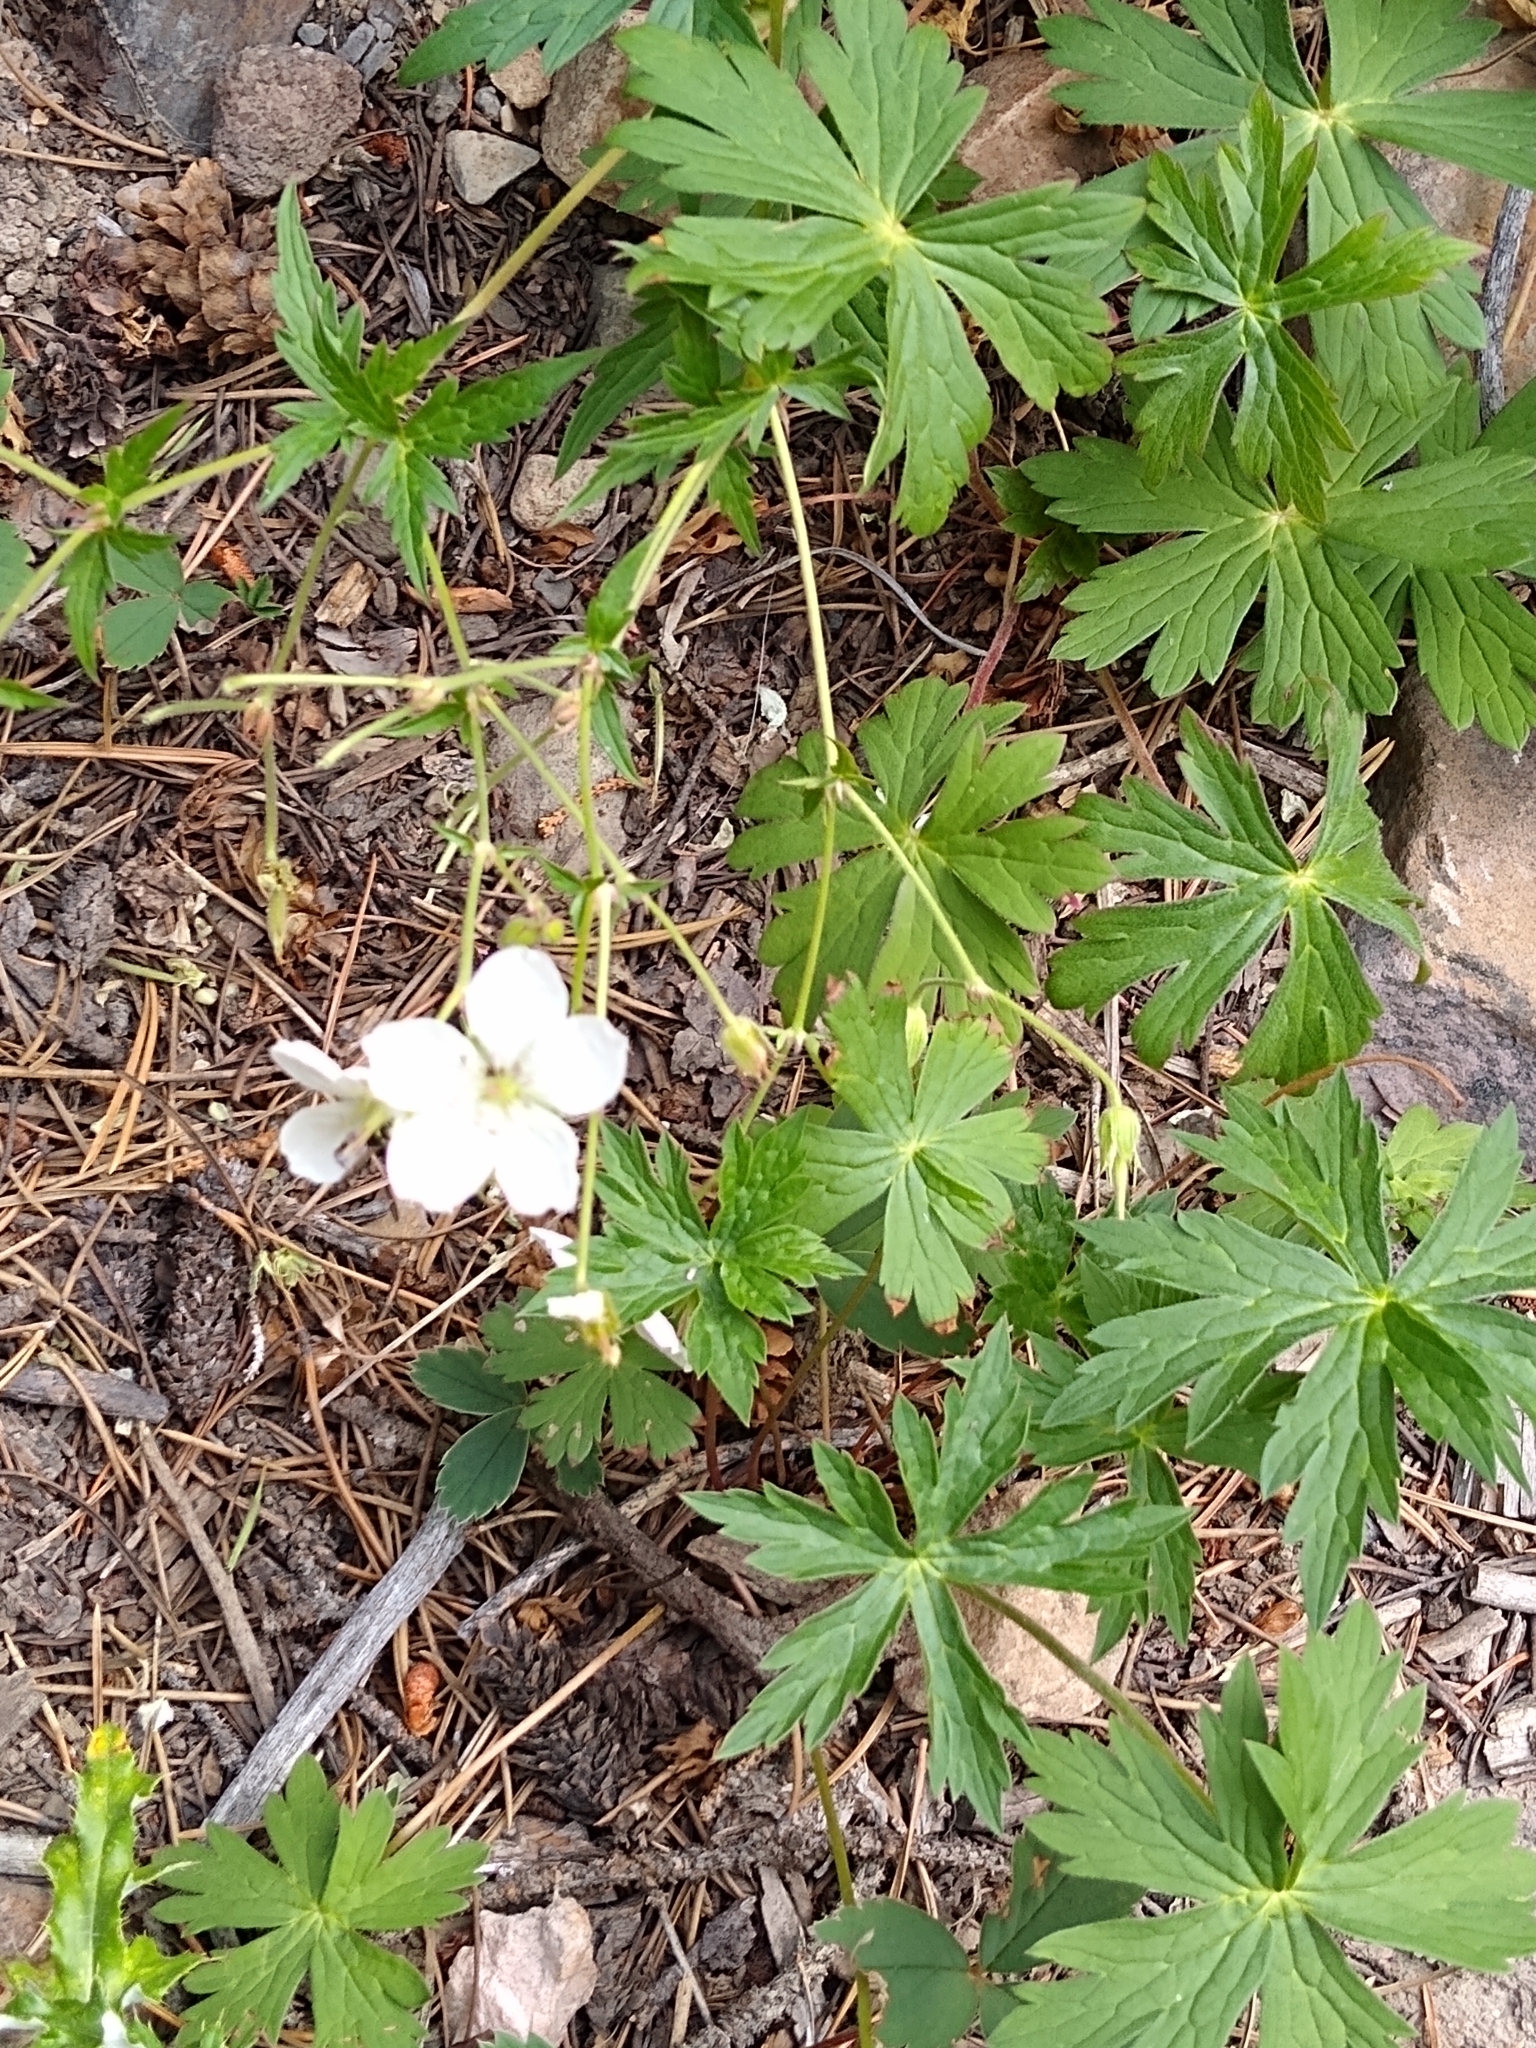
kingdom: Plantae
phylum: Tracheophyta
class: Magnoliopsida
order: Geraniales
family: Geraniaceae
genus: Geranium
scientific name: Geranium richardsonii
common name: Richardson's crane's-bill
